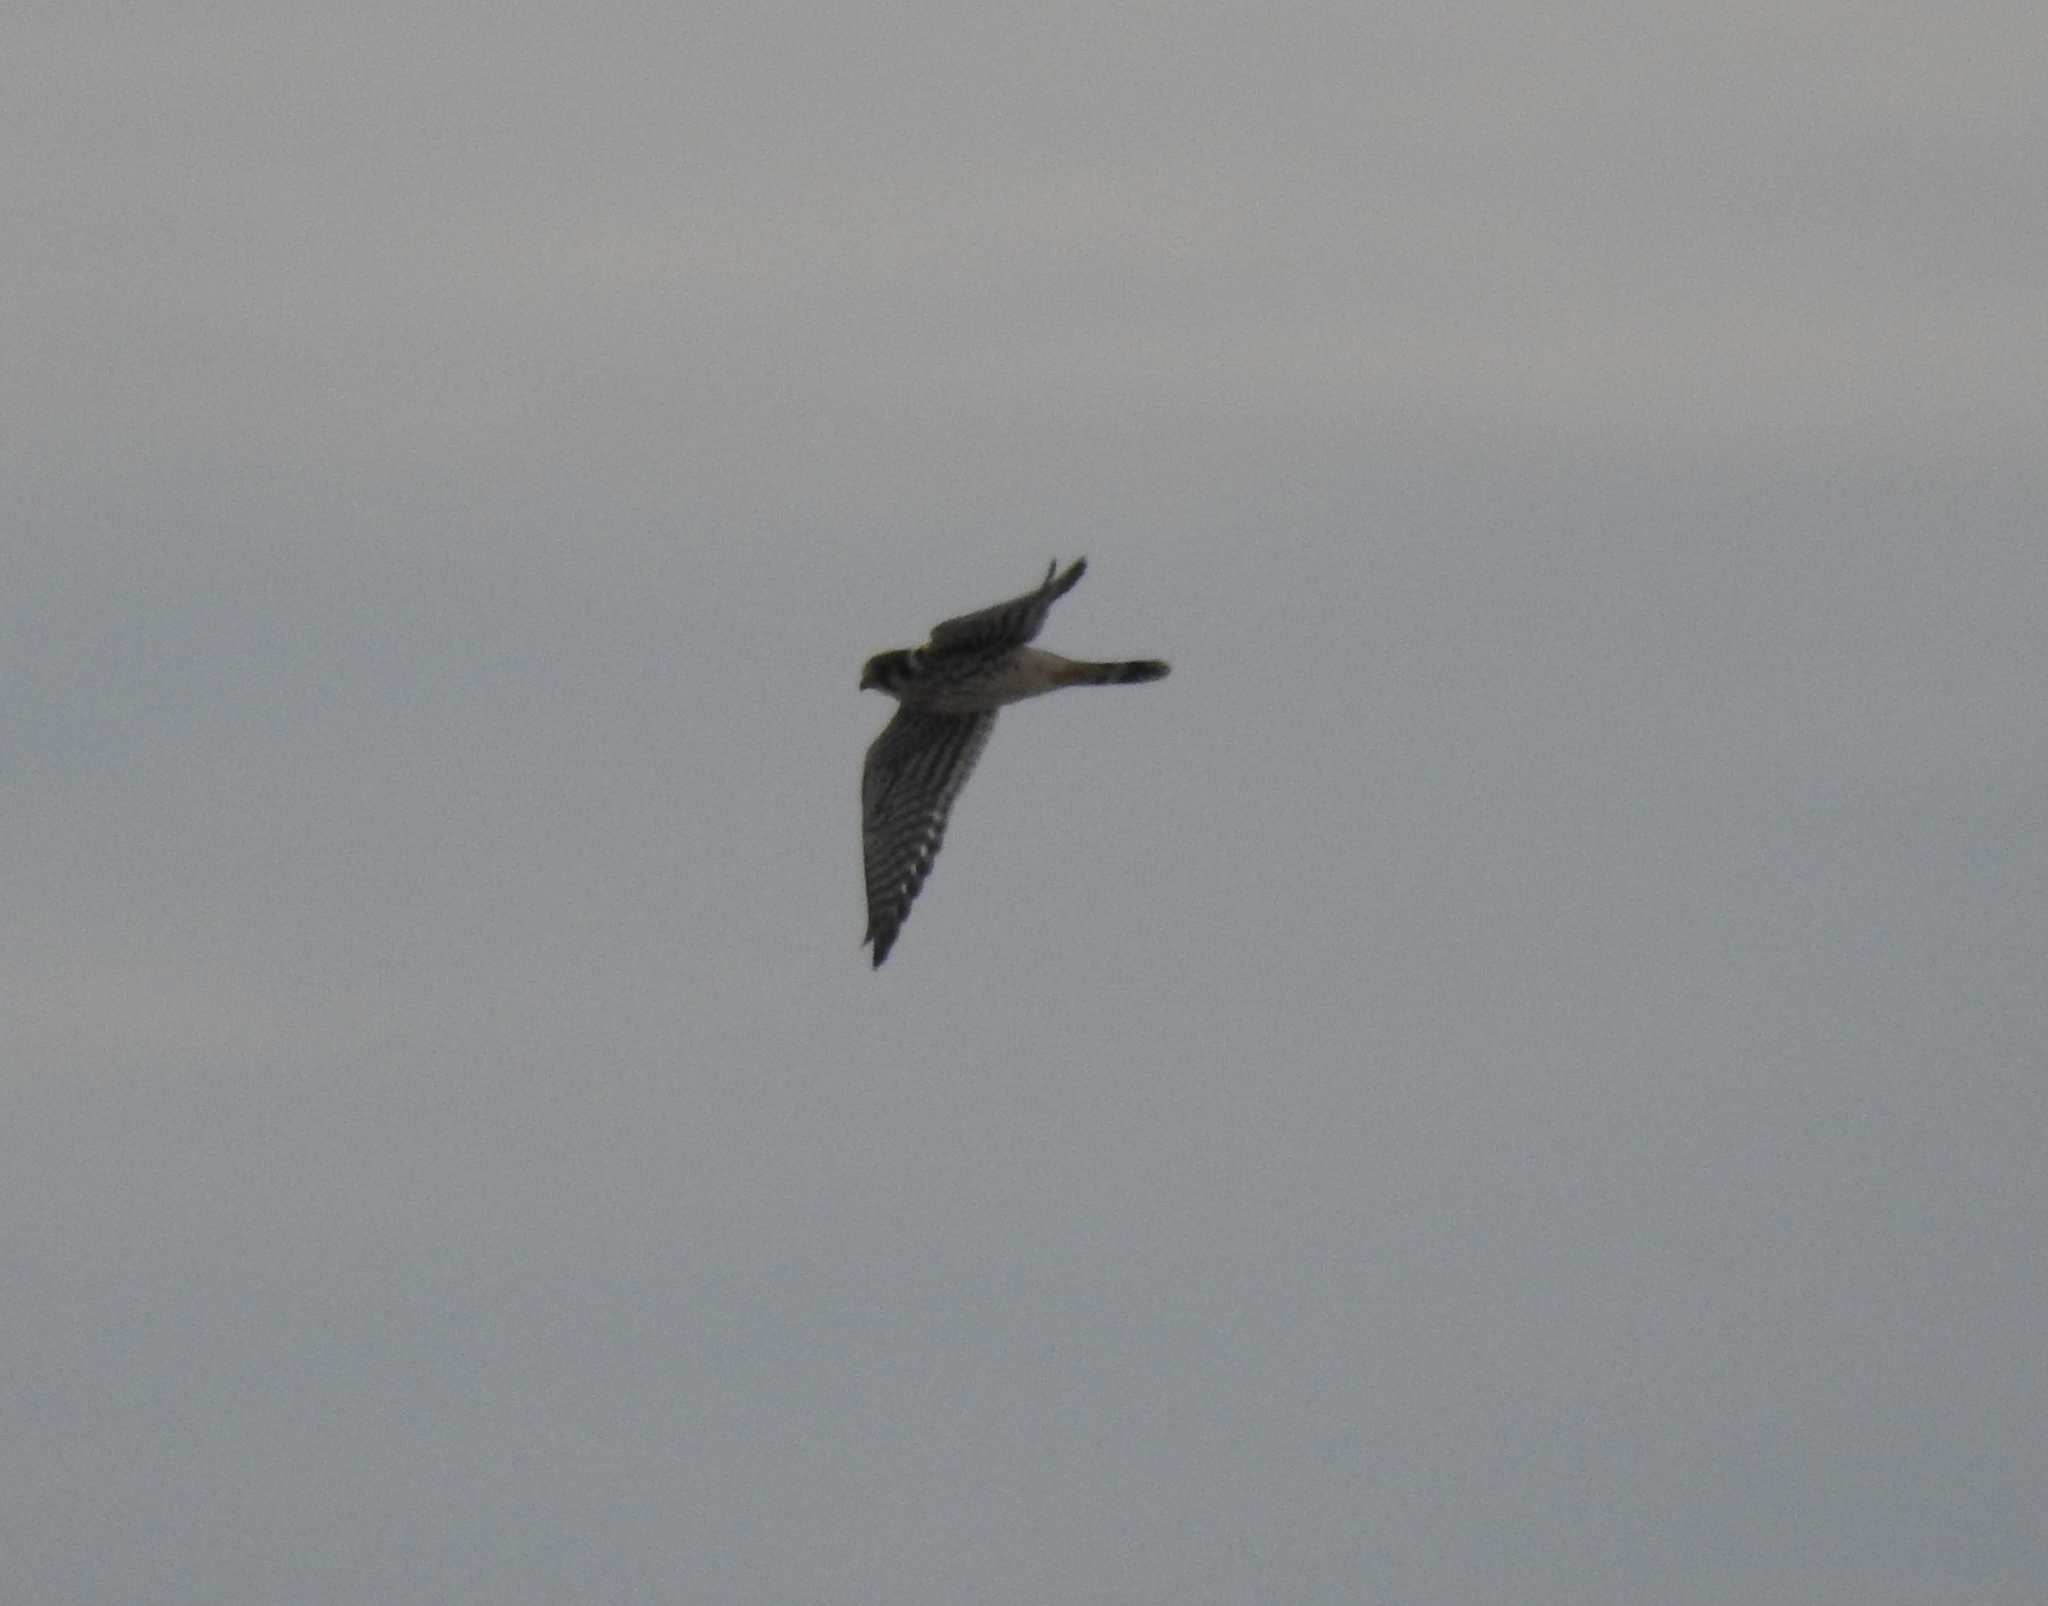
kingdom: Animalia
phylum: Chordata
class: Aves
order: Falconiformes
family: Falconidae
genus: Falco
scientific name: Falco sparverius
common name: American kestrel
